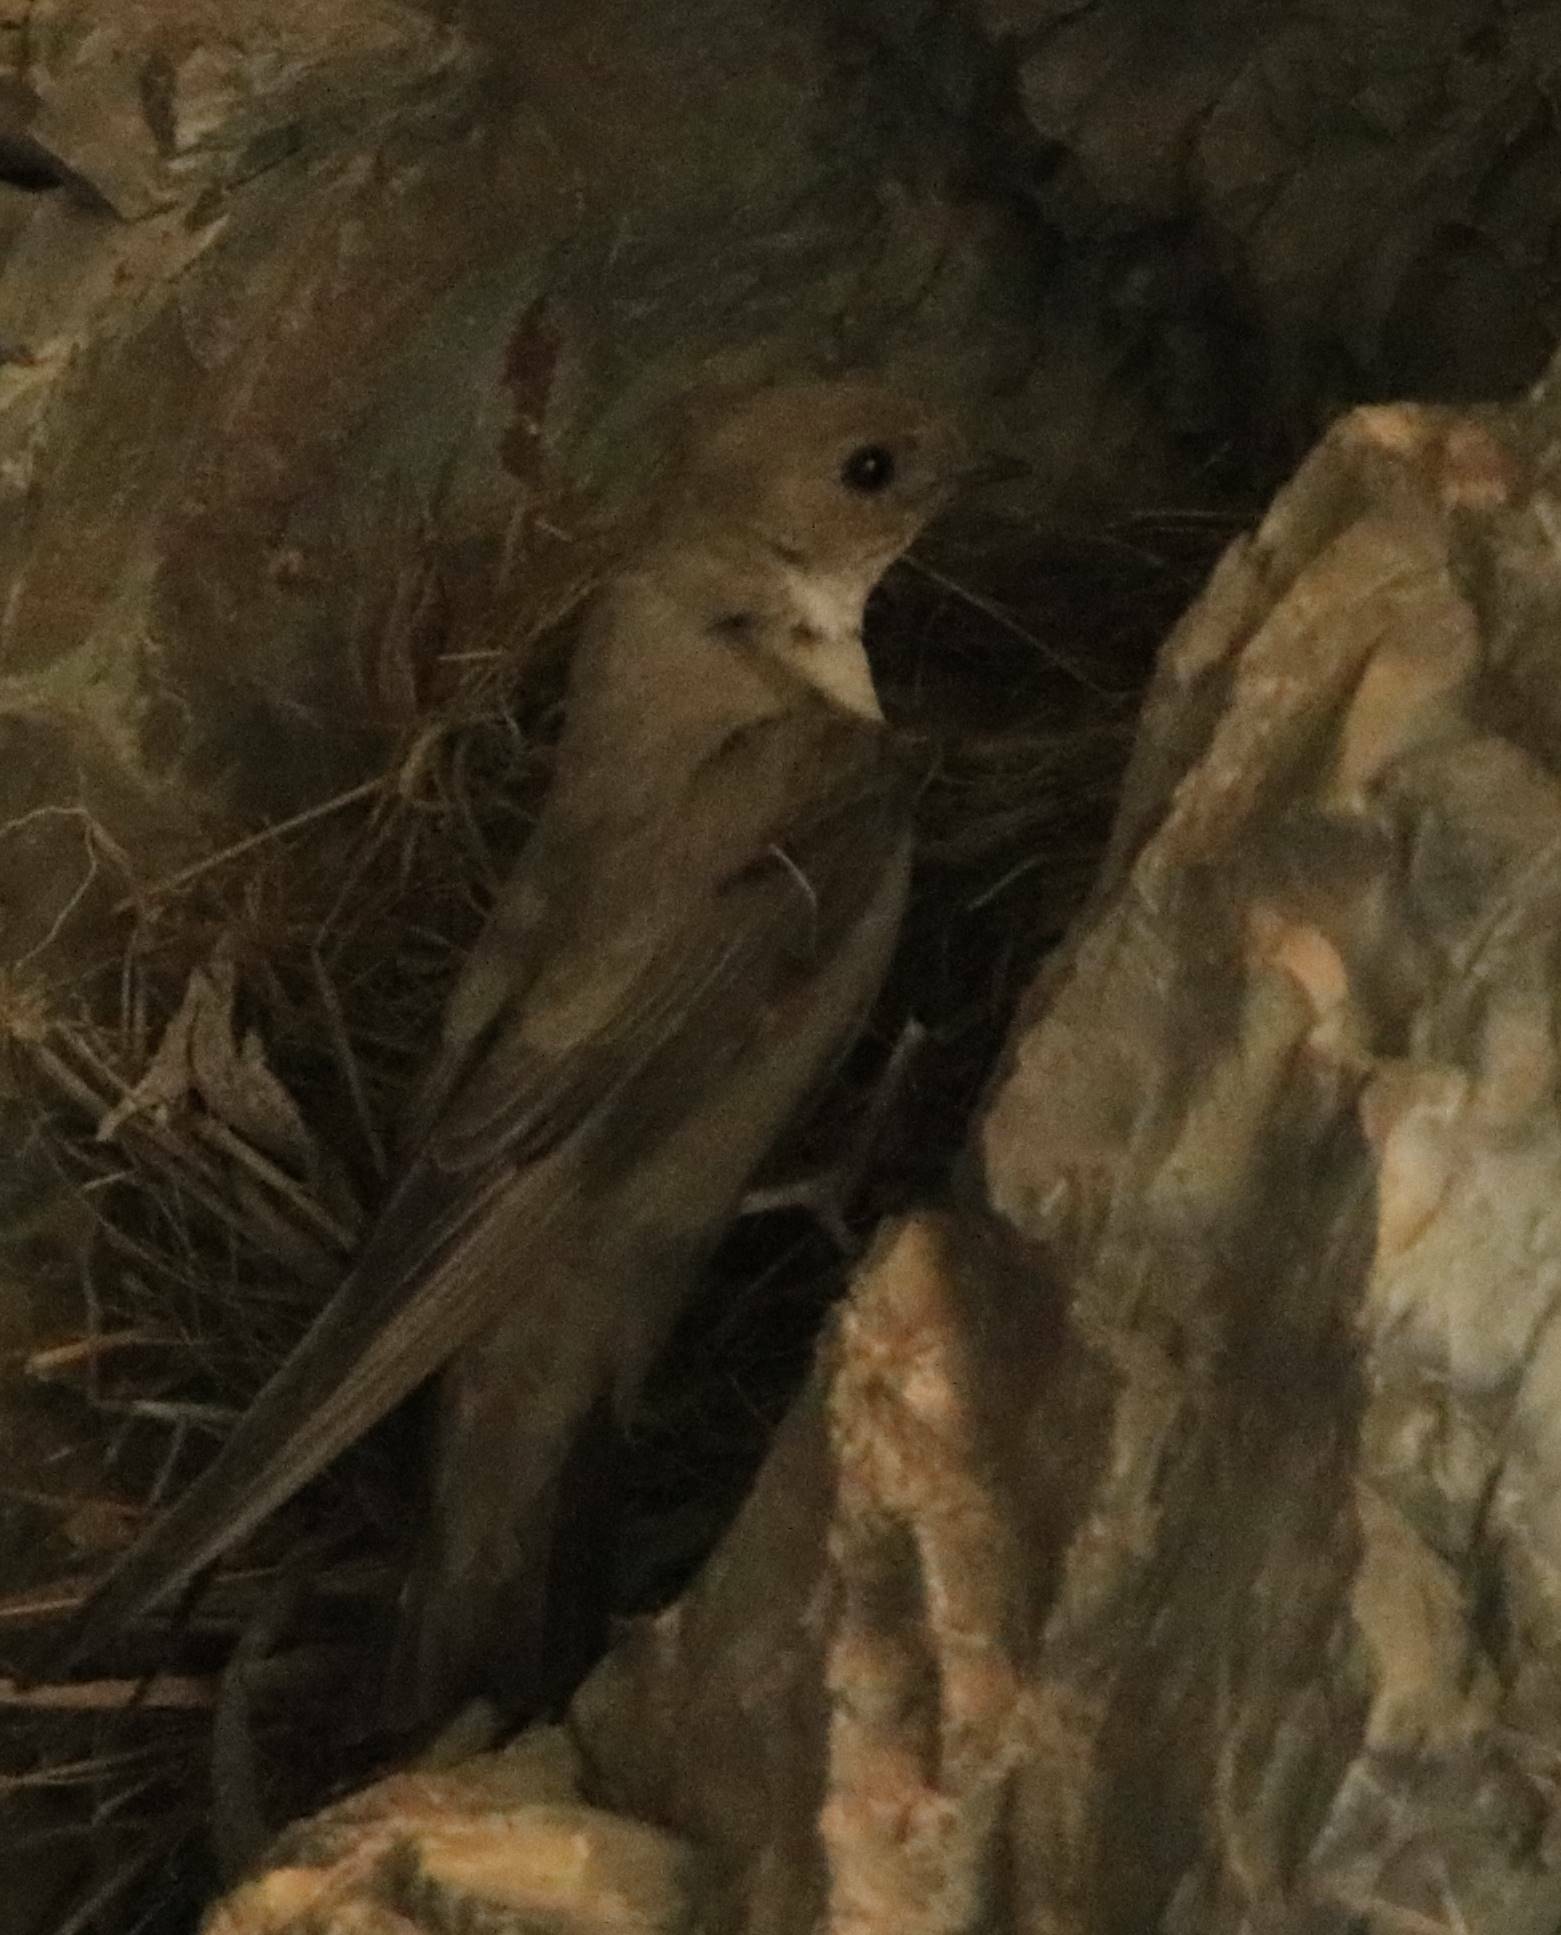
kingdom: Animalia
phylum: Chordata
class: Aves
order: Passeriformes
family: Hirundinidae
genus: Ptyonoprogne
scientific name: Ptyonoprogne rupestris
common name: Eurasian crag martin
